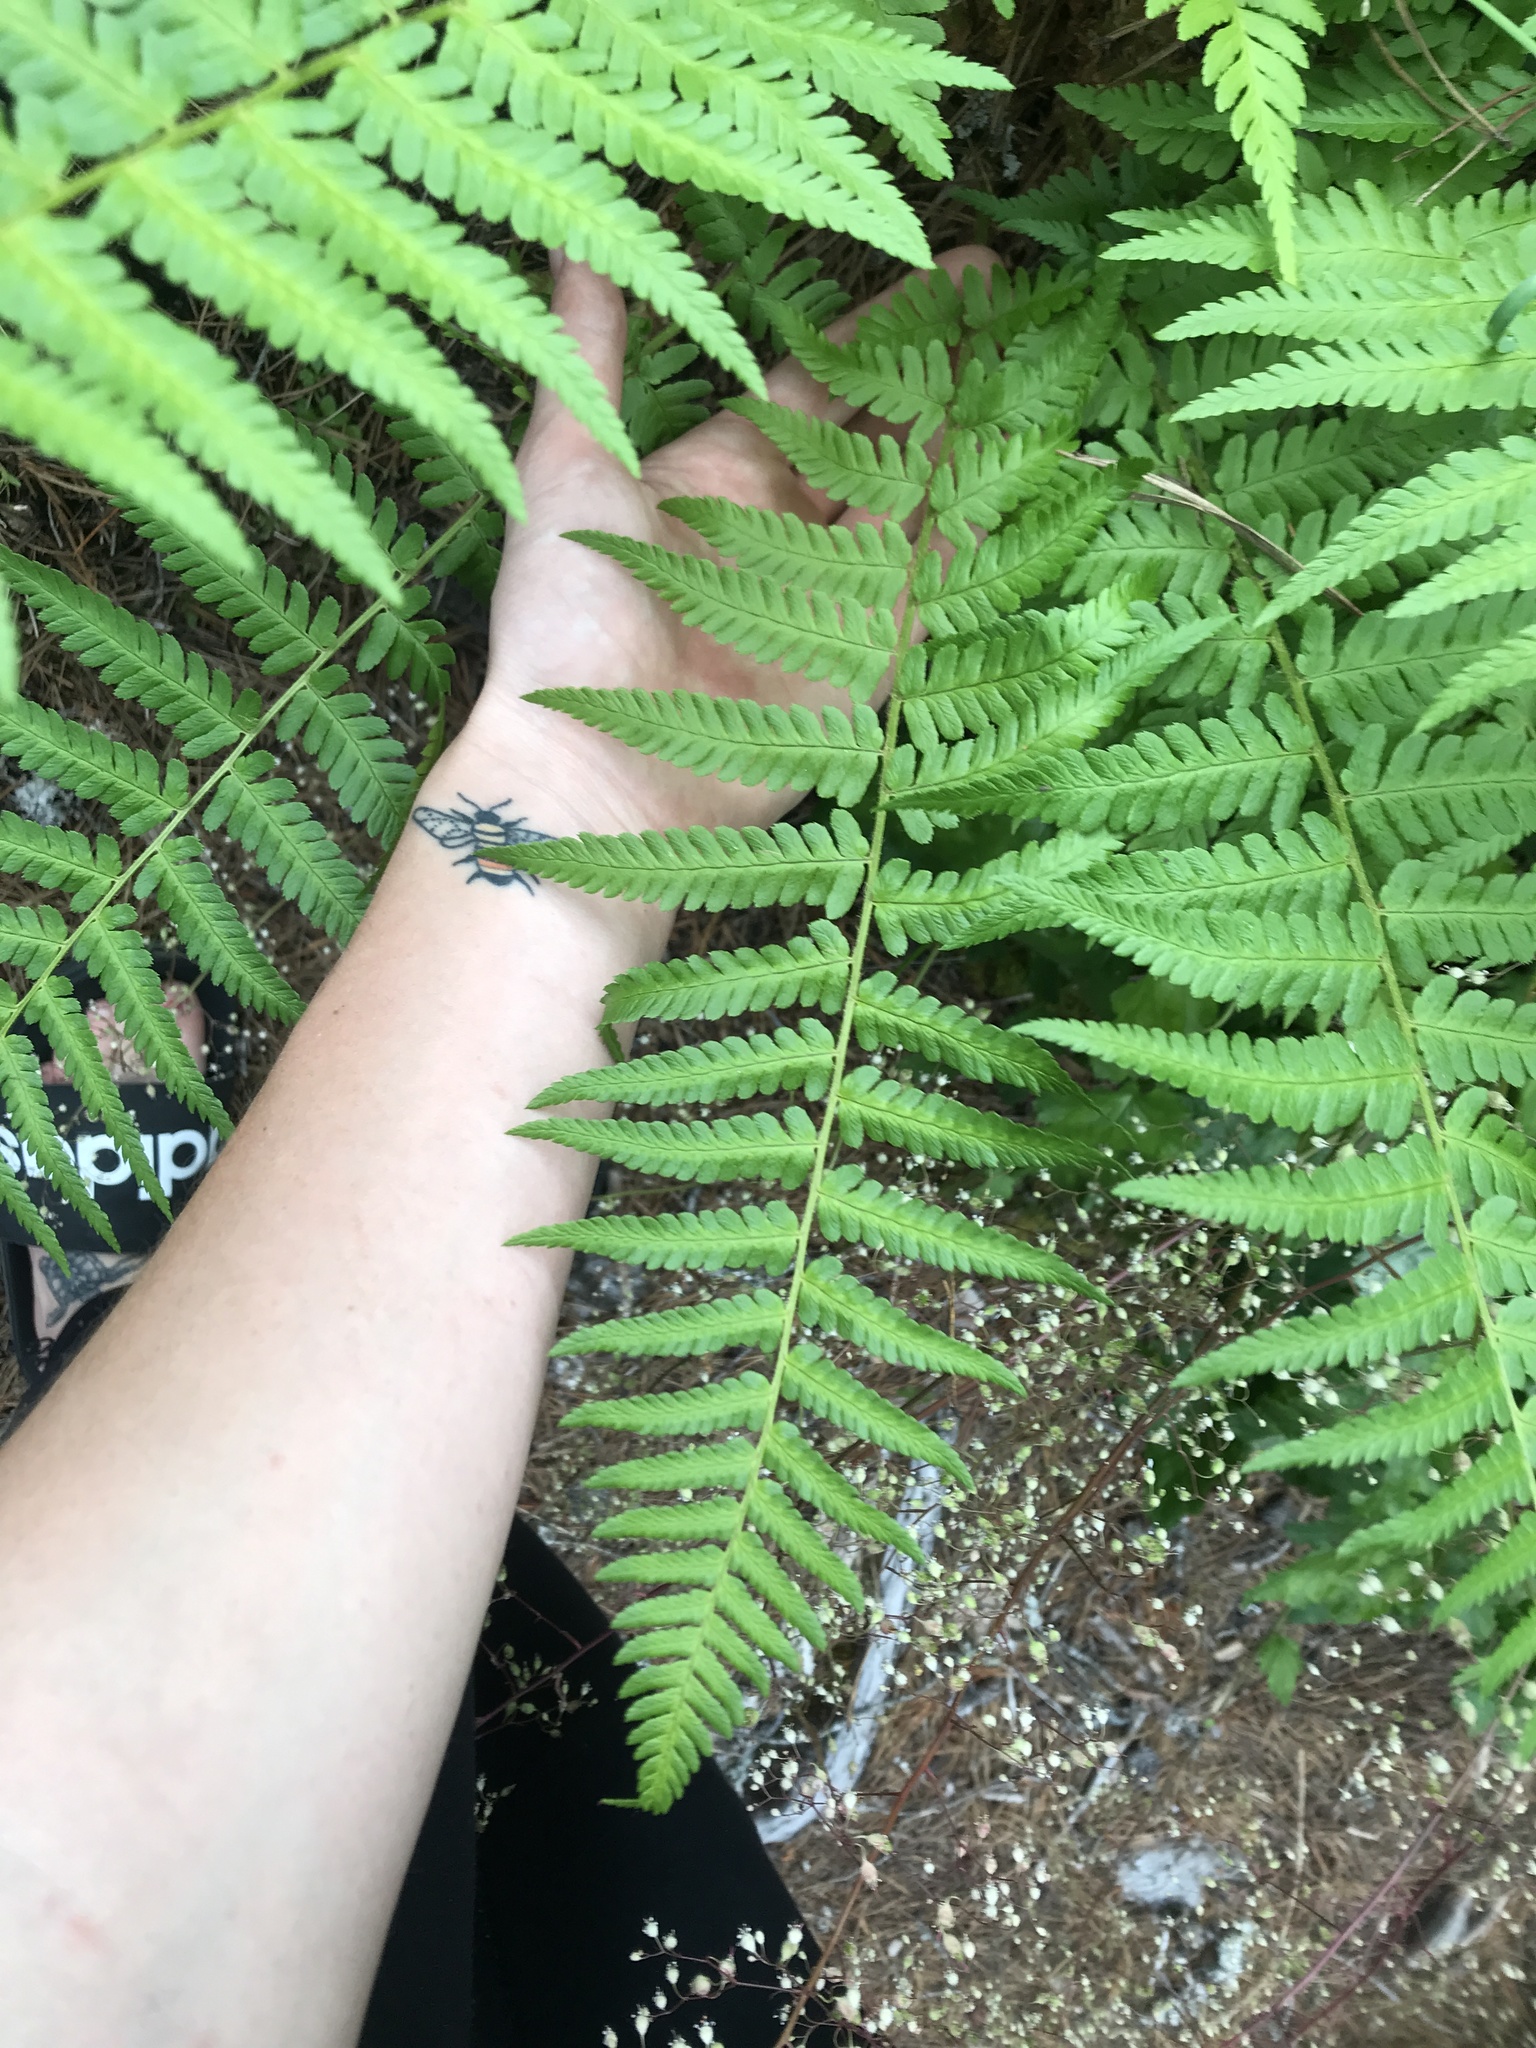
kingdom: Plantae
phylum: Tracheophyta
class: Polypodiopsida
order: Polypodiales
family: Dryopteridaceae
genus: Dryopteris
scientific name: Dryopteris filix-mas
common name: Male fern
